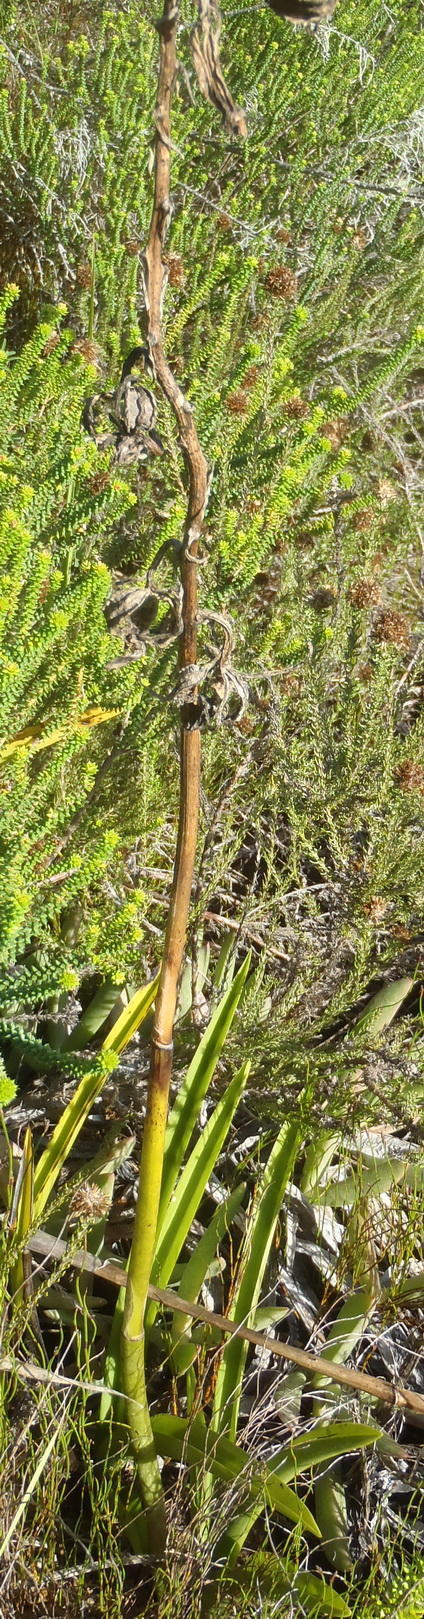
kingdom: Plantae
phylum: Tracheophyta
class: Liliopsida
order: Asparagales
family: Orchidaceae
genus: Eulophia
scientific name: Eulophia speciosa
